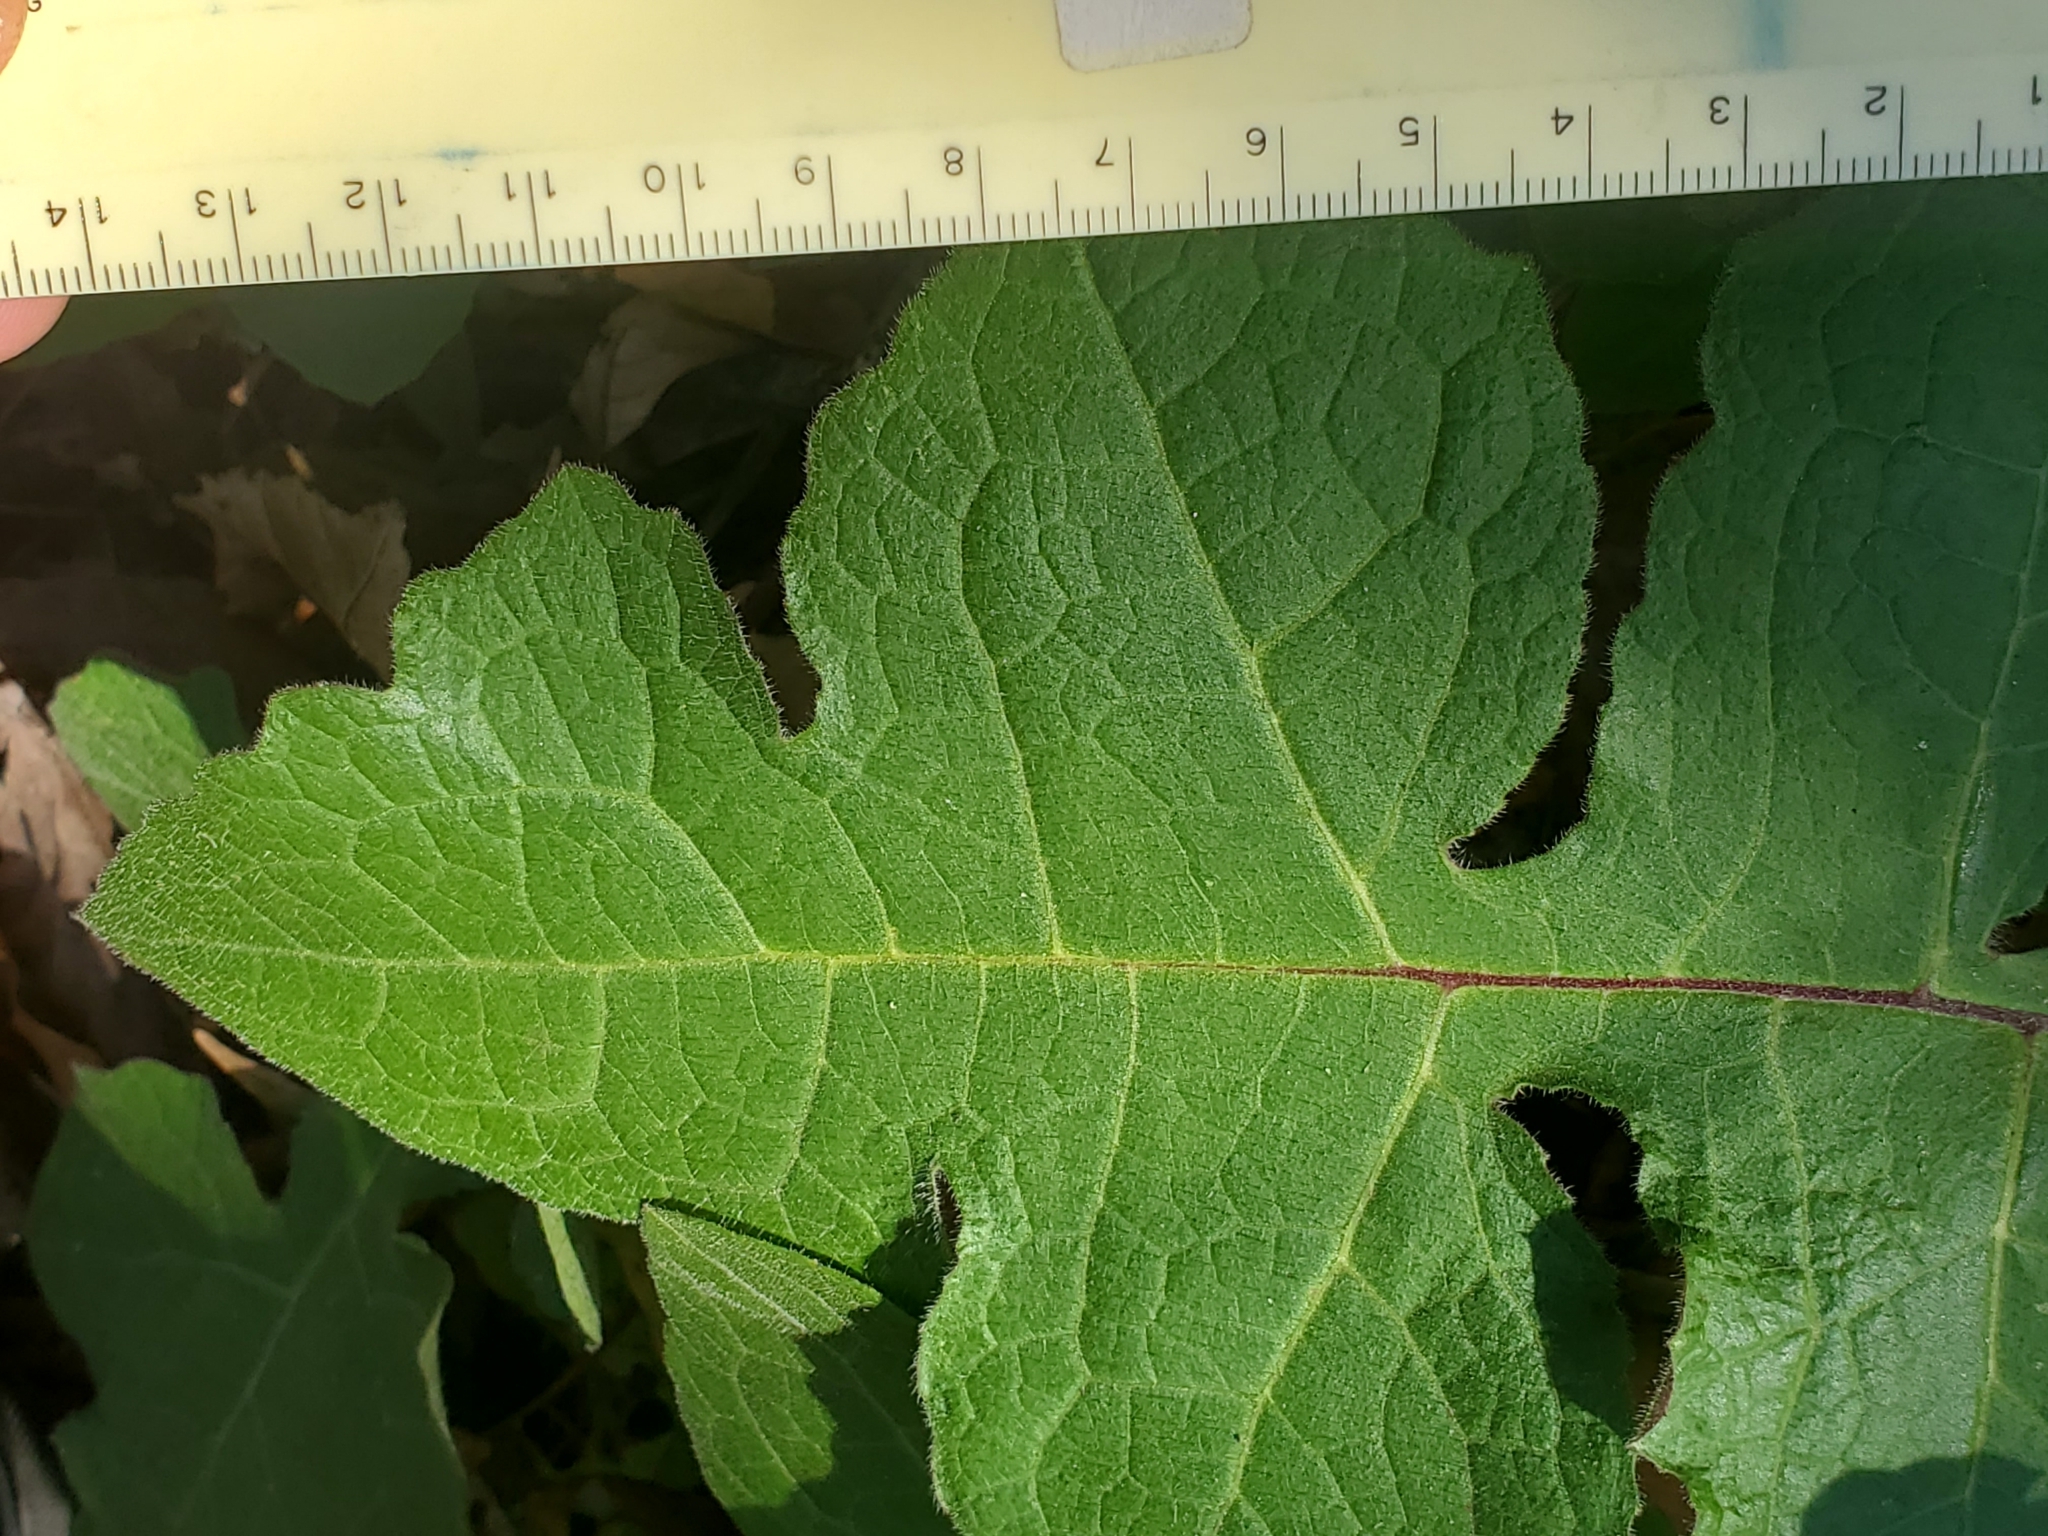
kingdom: Plantae
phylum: Tracheophyta
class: Magnoliopsida
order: Asterales
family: Asteraceae
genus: Polymnia
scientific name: Polymnia canadensis
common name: Pale-flowered leafcup
